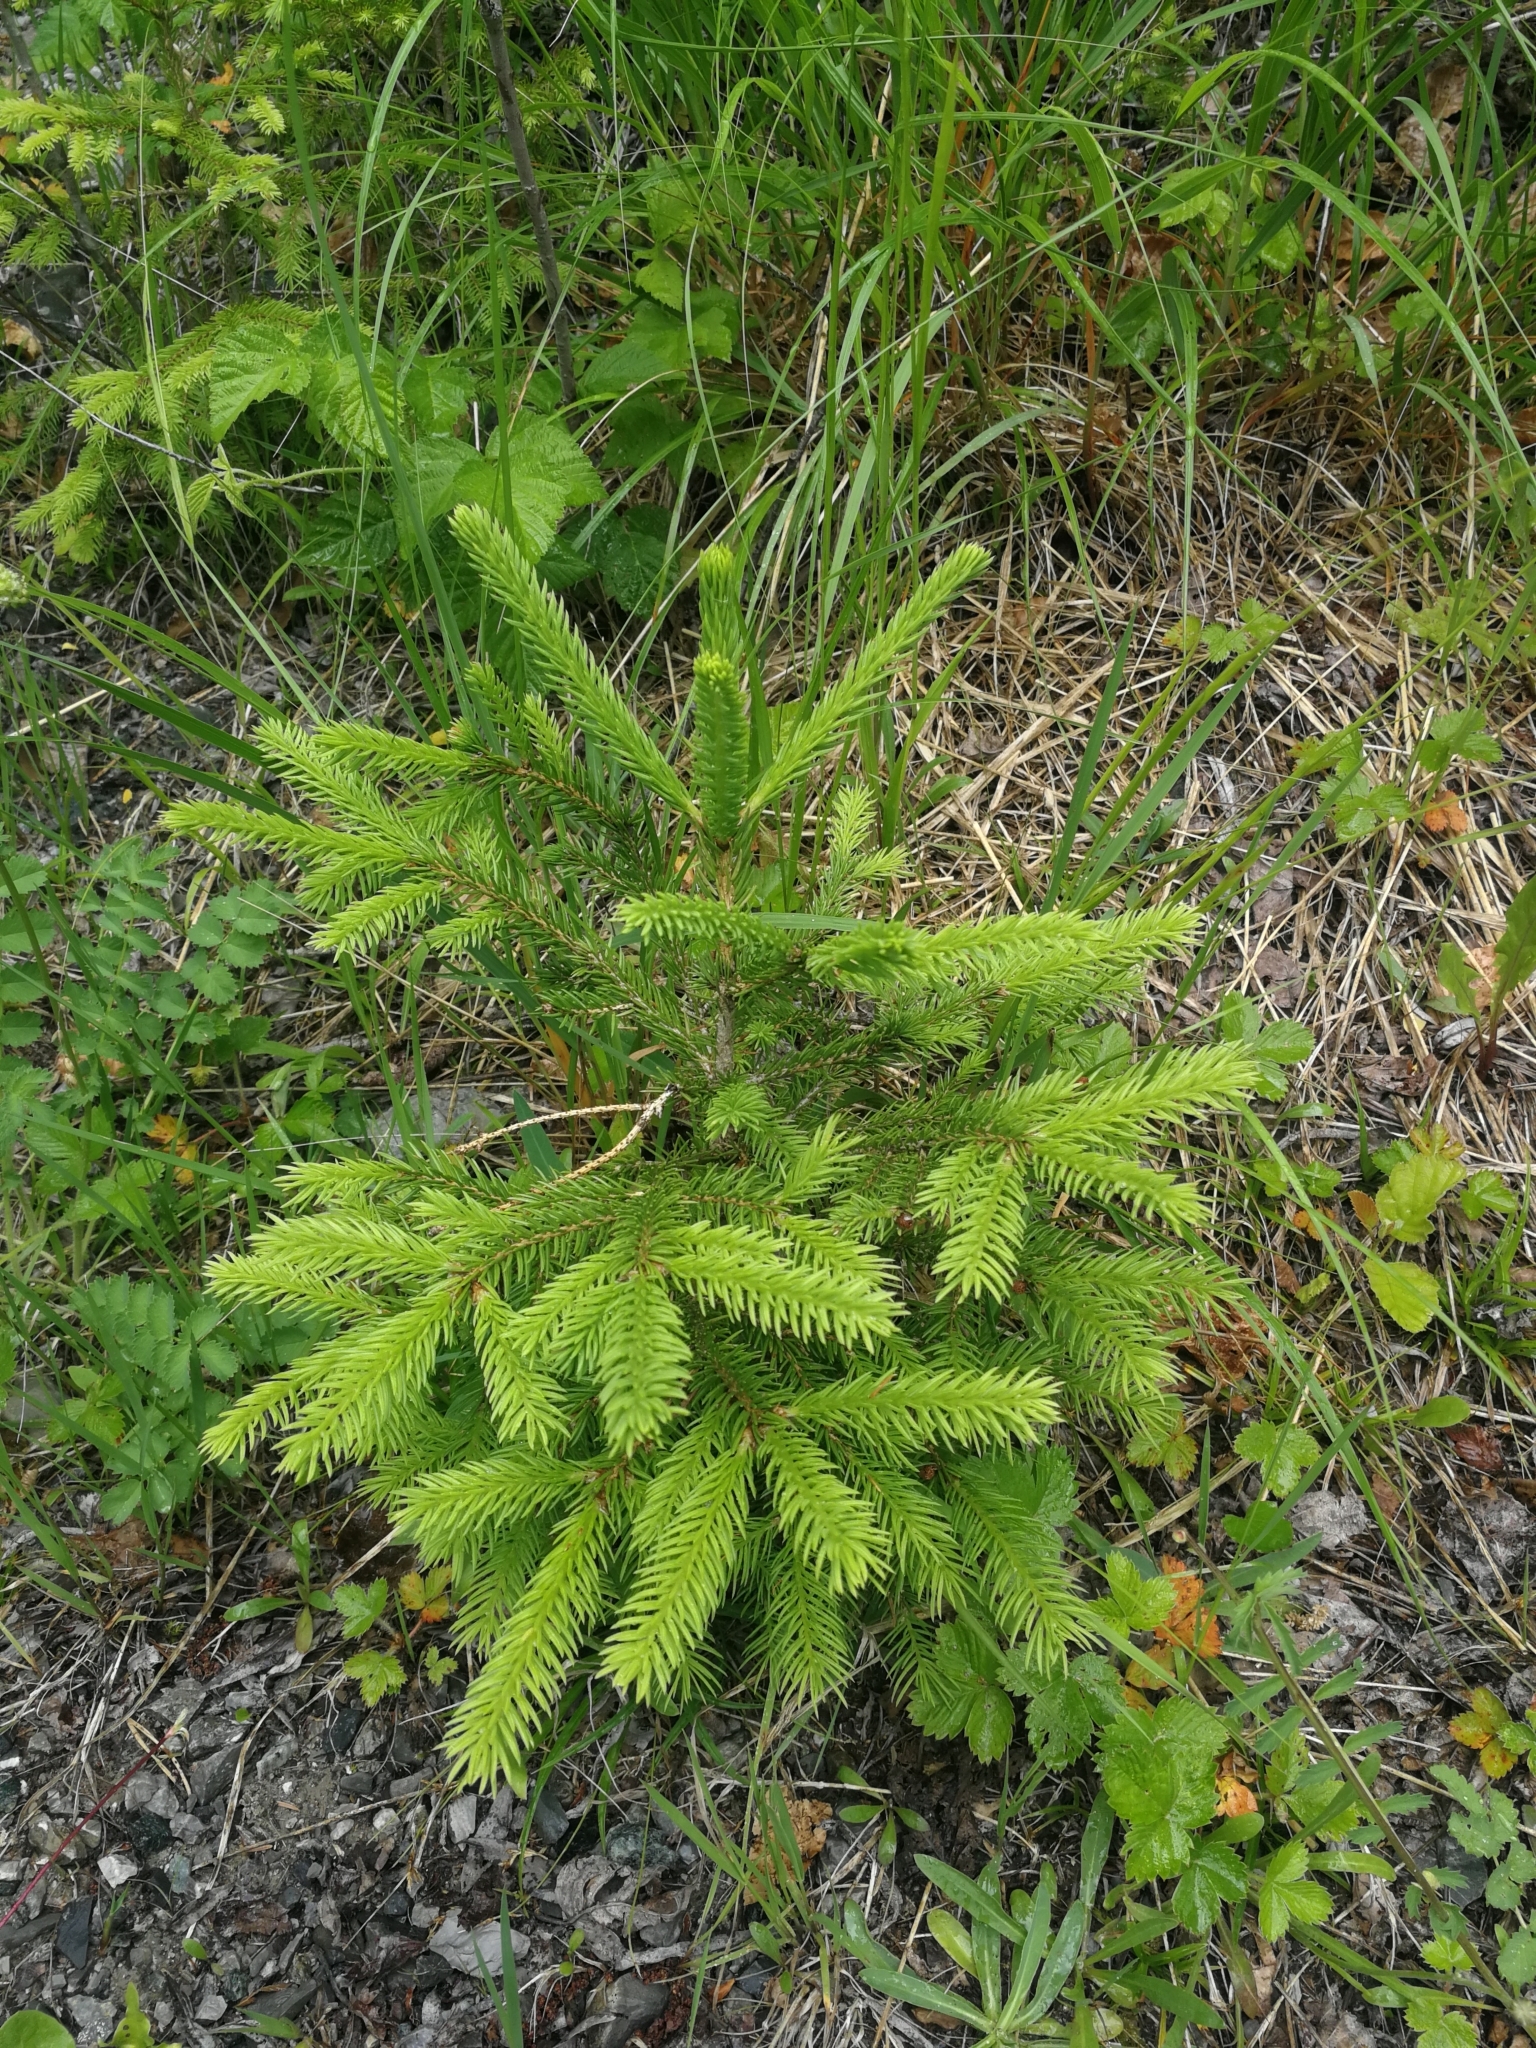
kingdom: Plantae
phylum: Tracheophyta
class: Pinopsida
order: Pinales
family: Pinaceae
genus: Picea
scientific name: Picea abies
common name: Norway spruce
